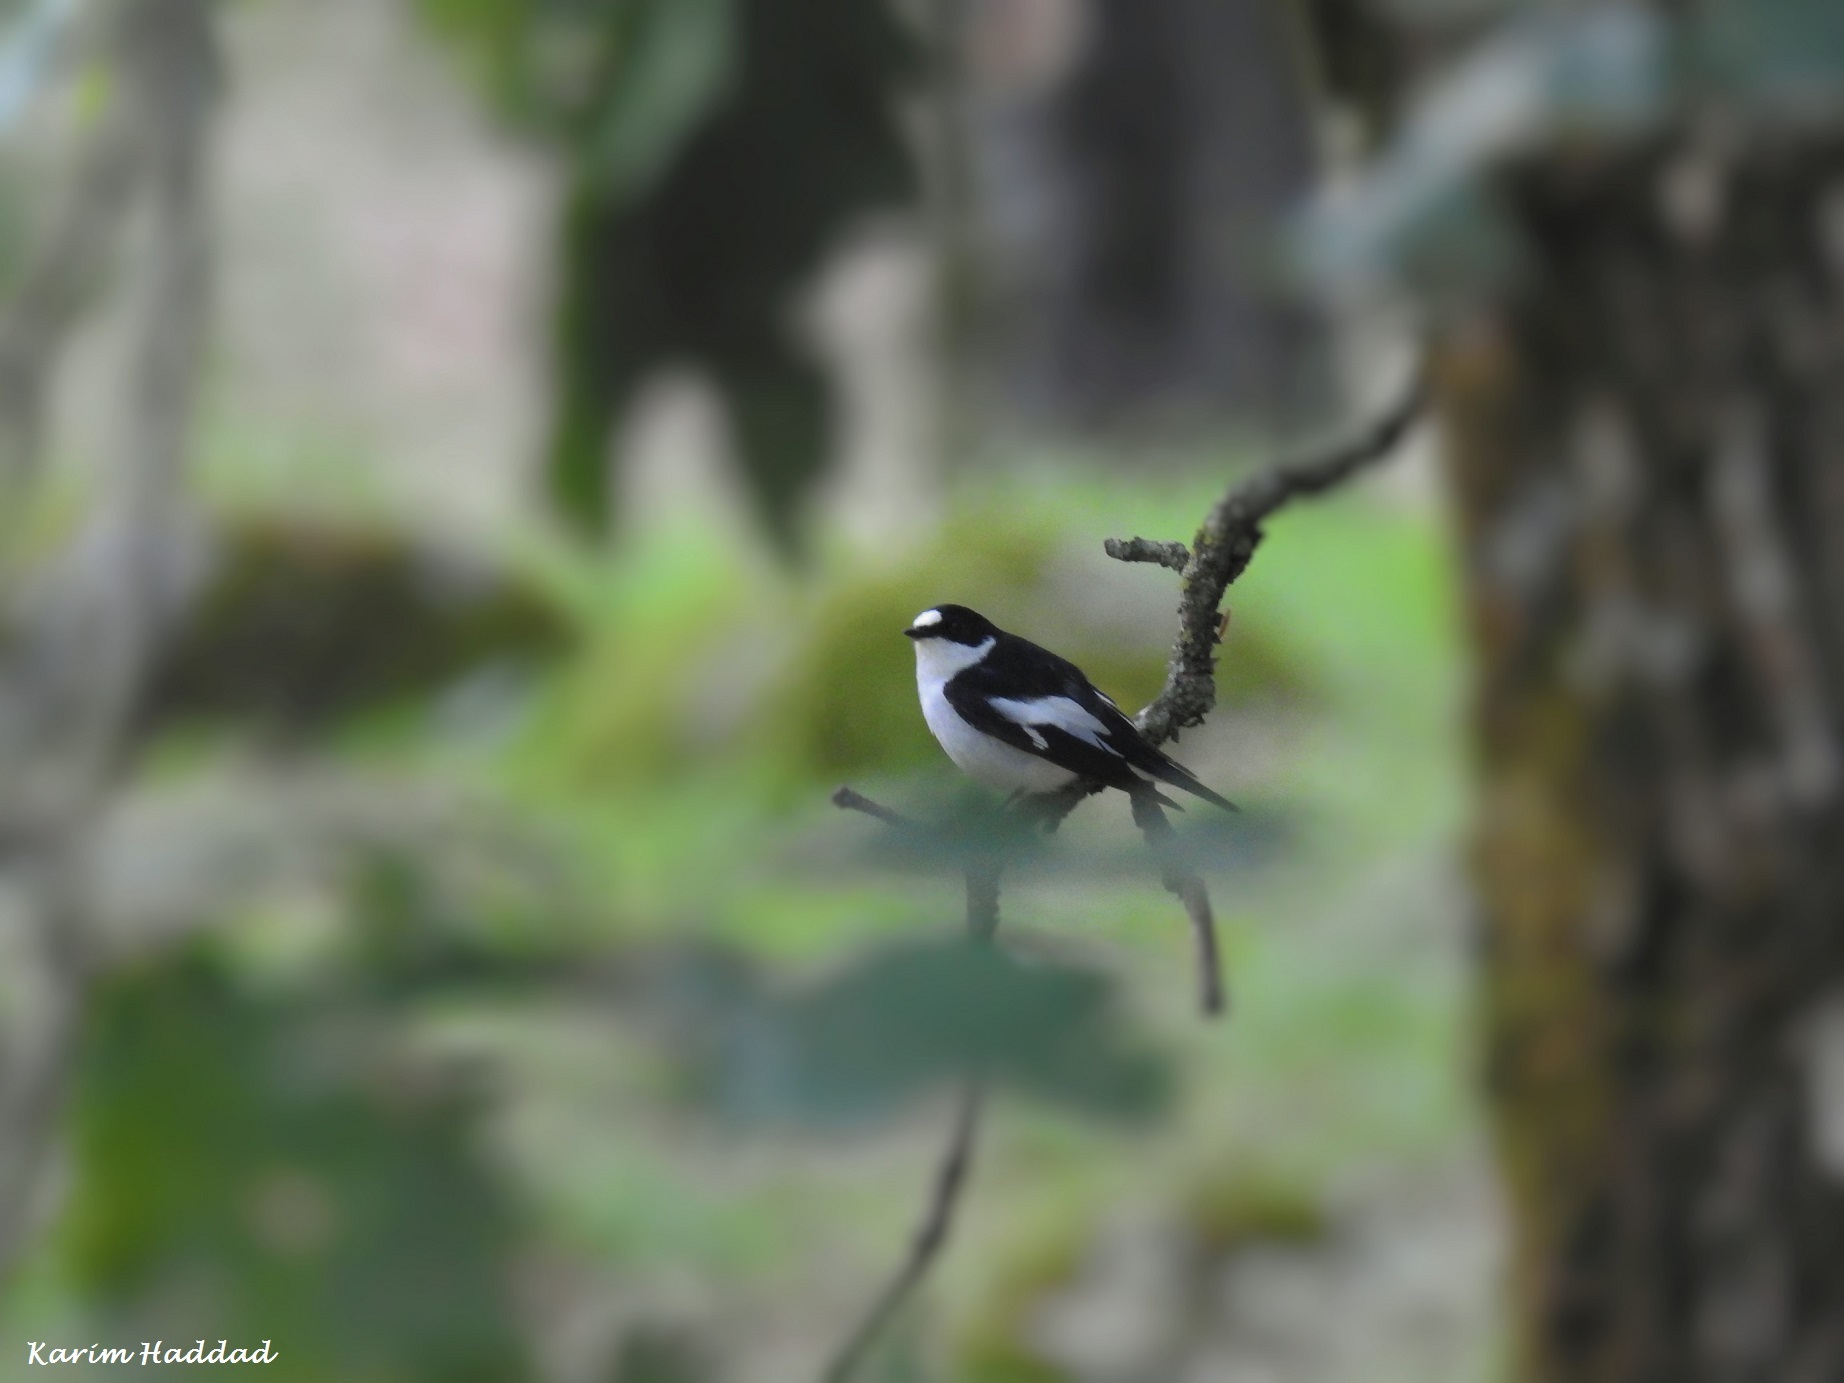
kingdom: Animalia
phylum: Chordata
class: Aves
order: Passeriformes
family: Muscicapidae
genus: Ficedula
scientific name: Ficedula speculigera
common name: Atlas pied flycatcher
